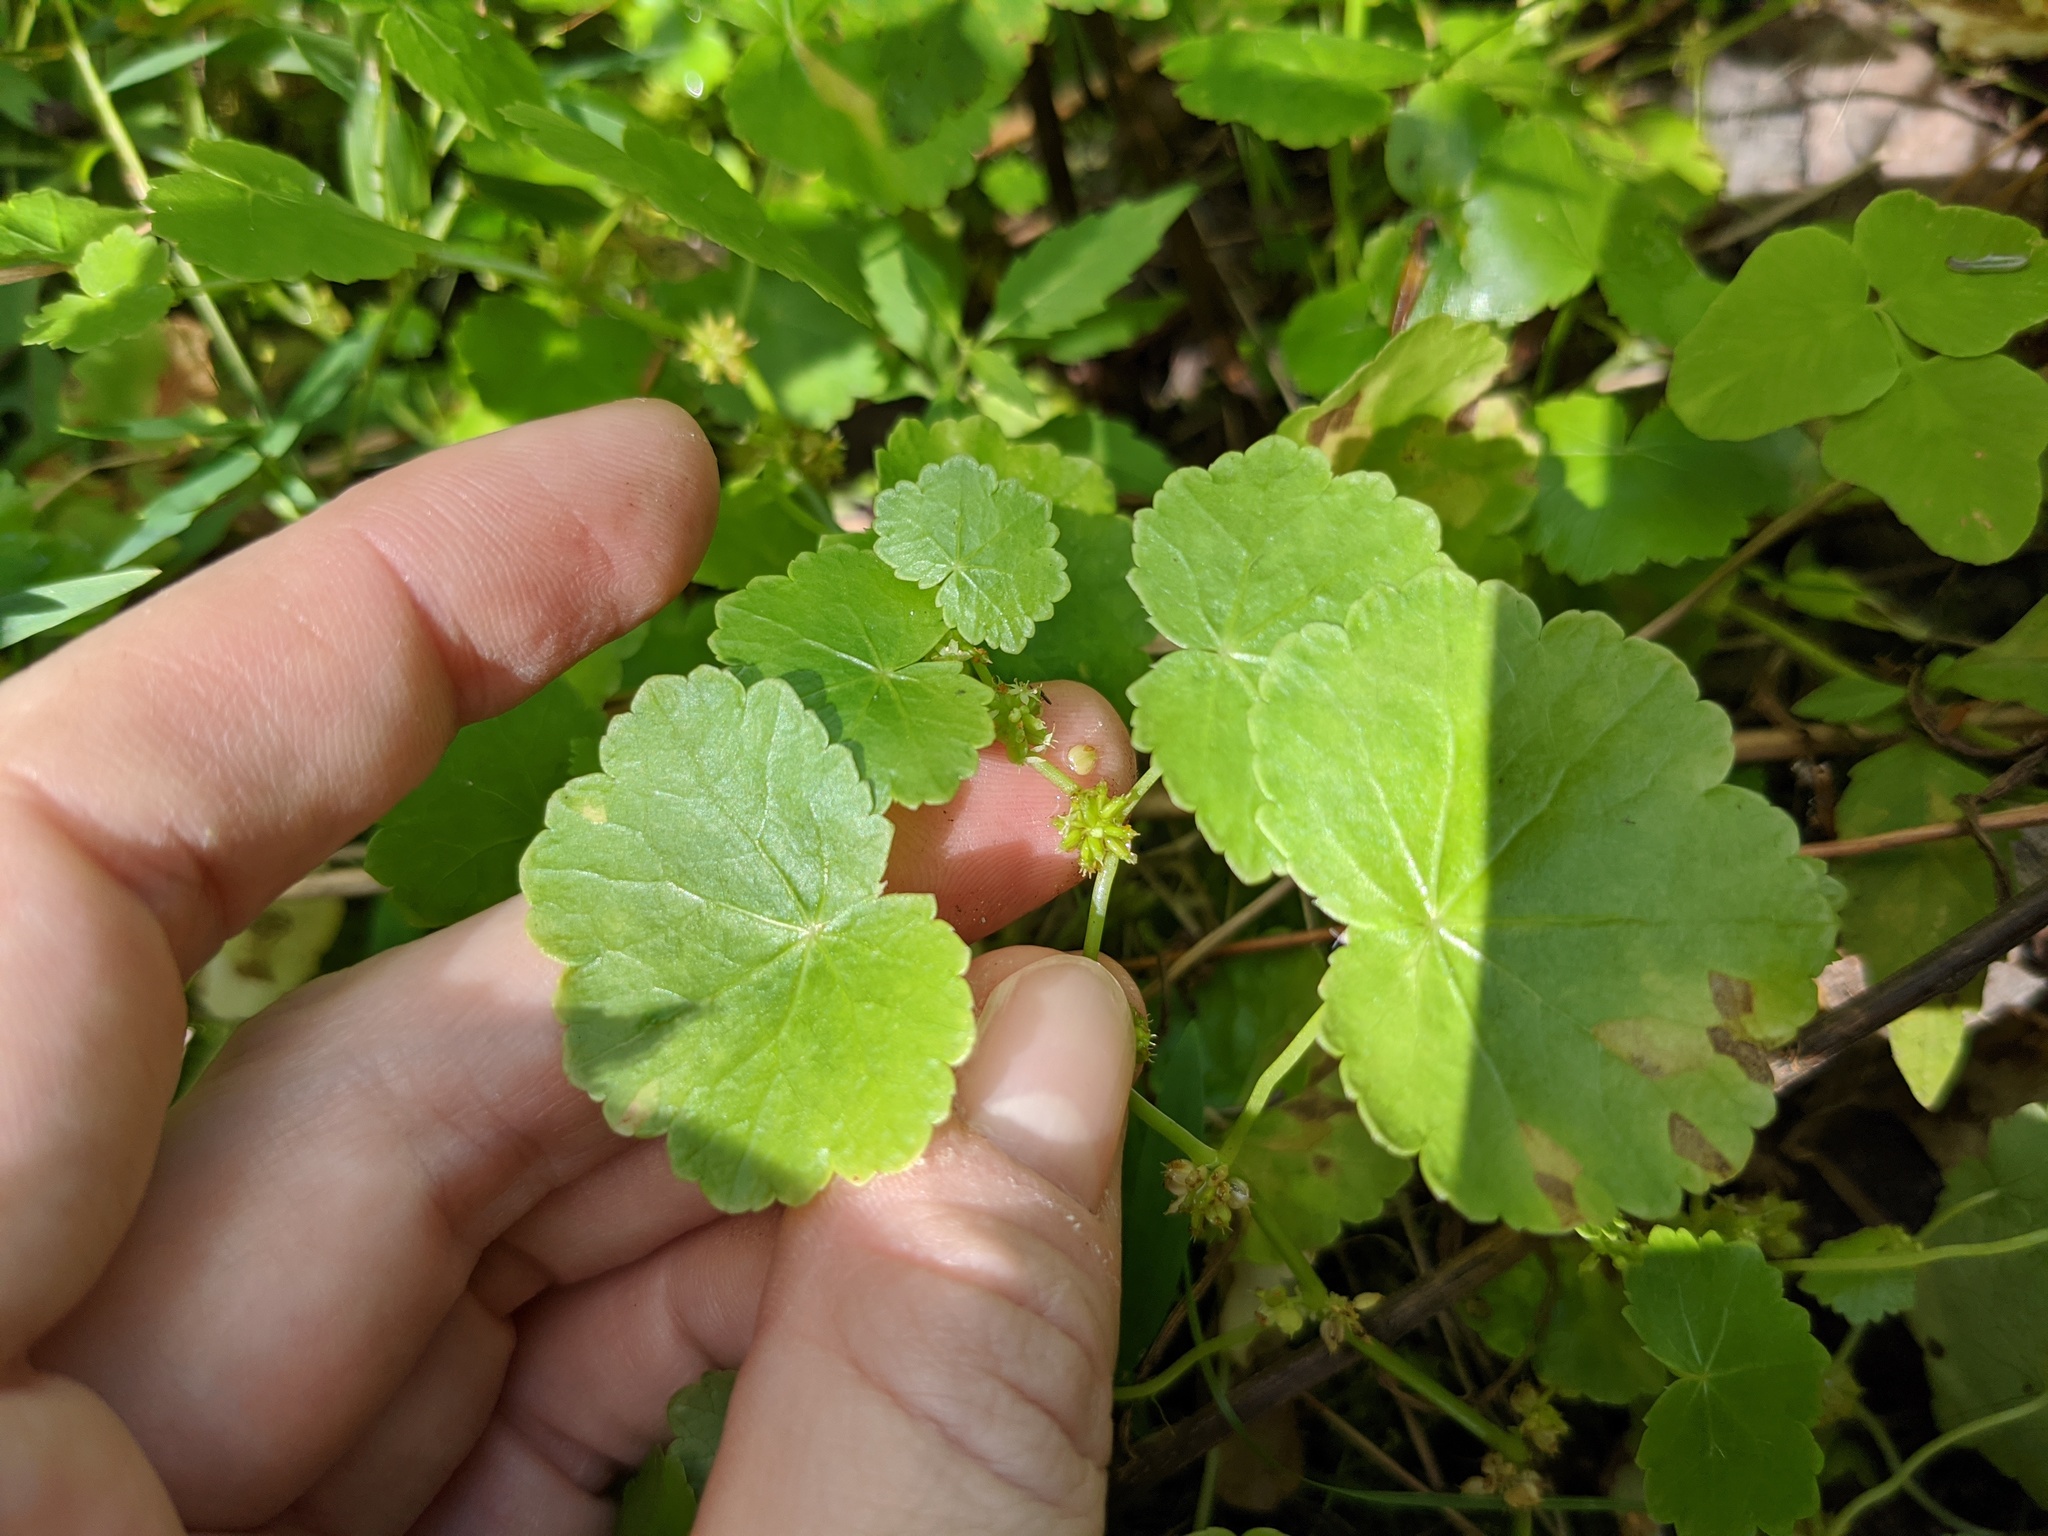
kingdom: Plantae
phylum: Tracheophyta
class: Magnoliopsida
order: Apiales
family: Araliaceae
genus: Hydrocotyle
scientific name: Hydrocotyle americana
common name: American water-pennywort
